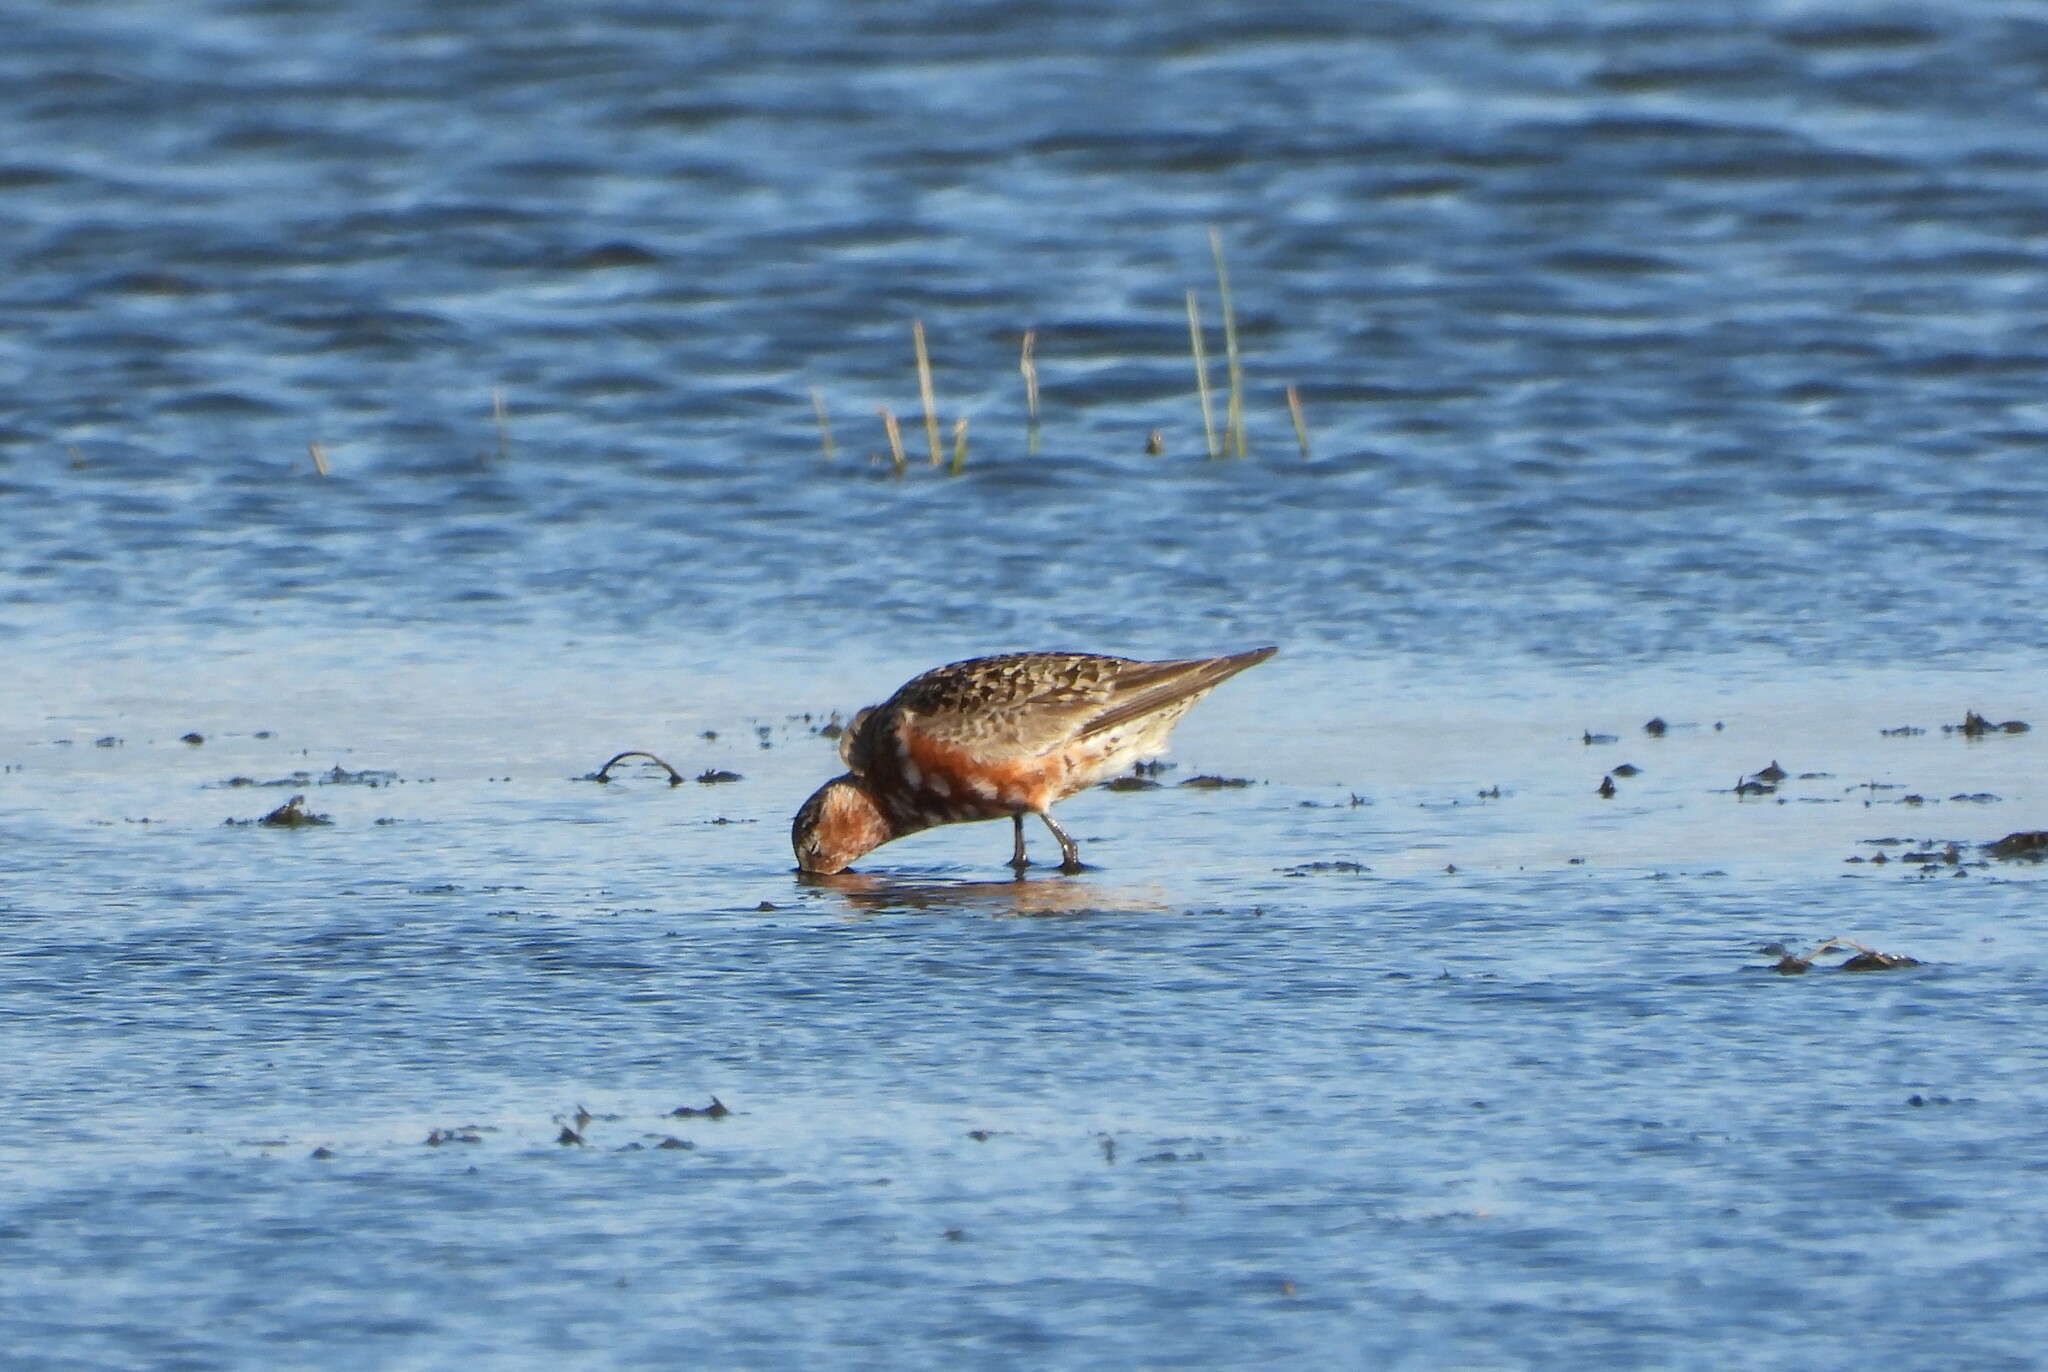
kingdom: Animalia
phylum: Chordata
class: Aves
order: Charadriiformes
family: Scolopacidae
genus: Calidris
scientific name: Calidris ferruginea
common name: Curlew sandpiper
